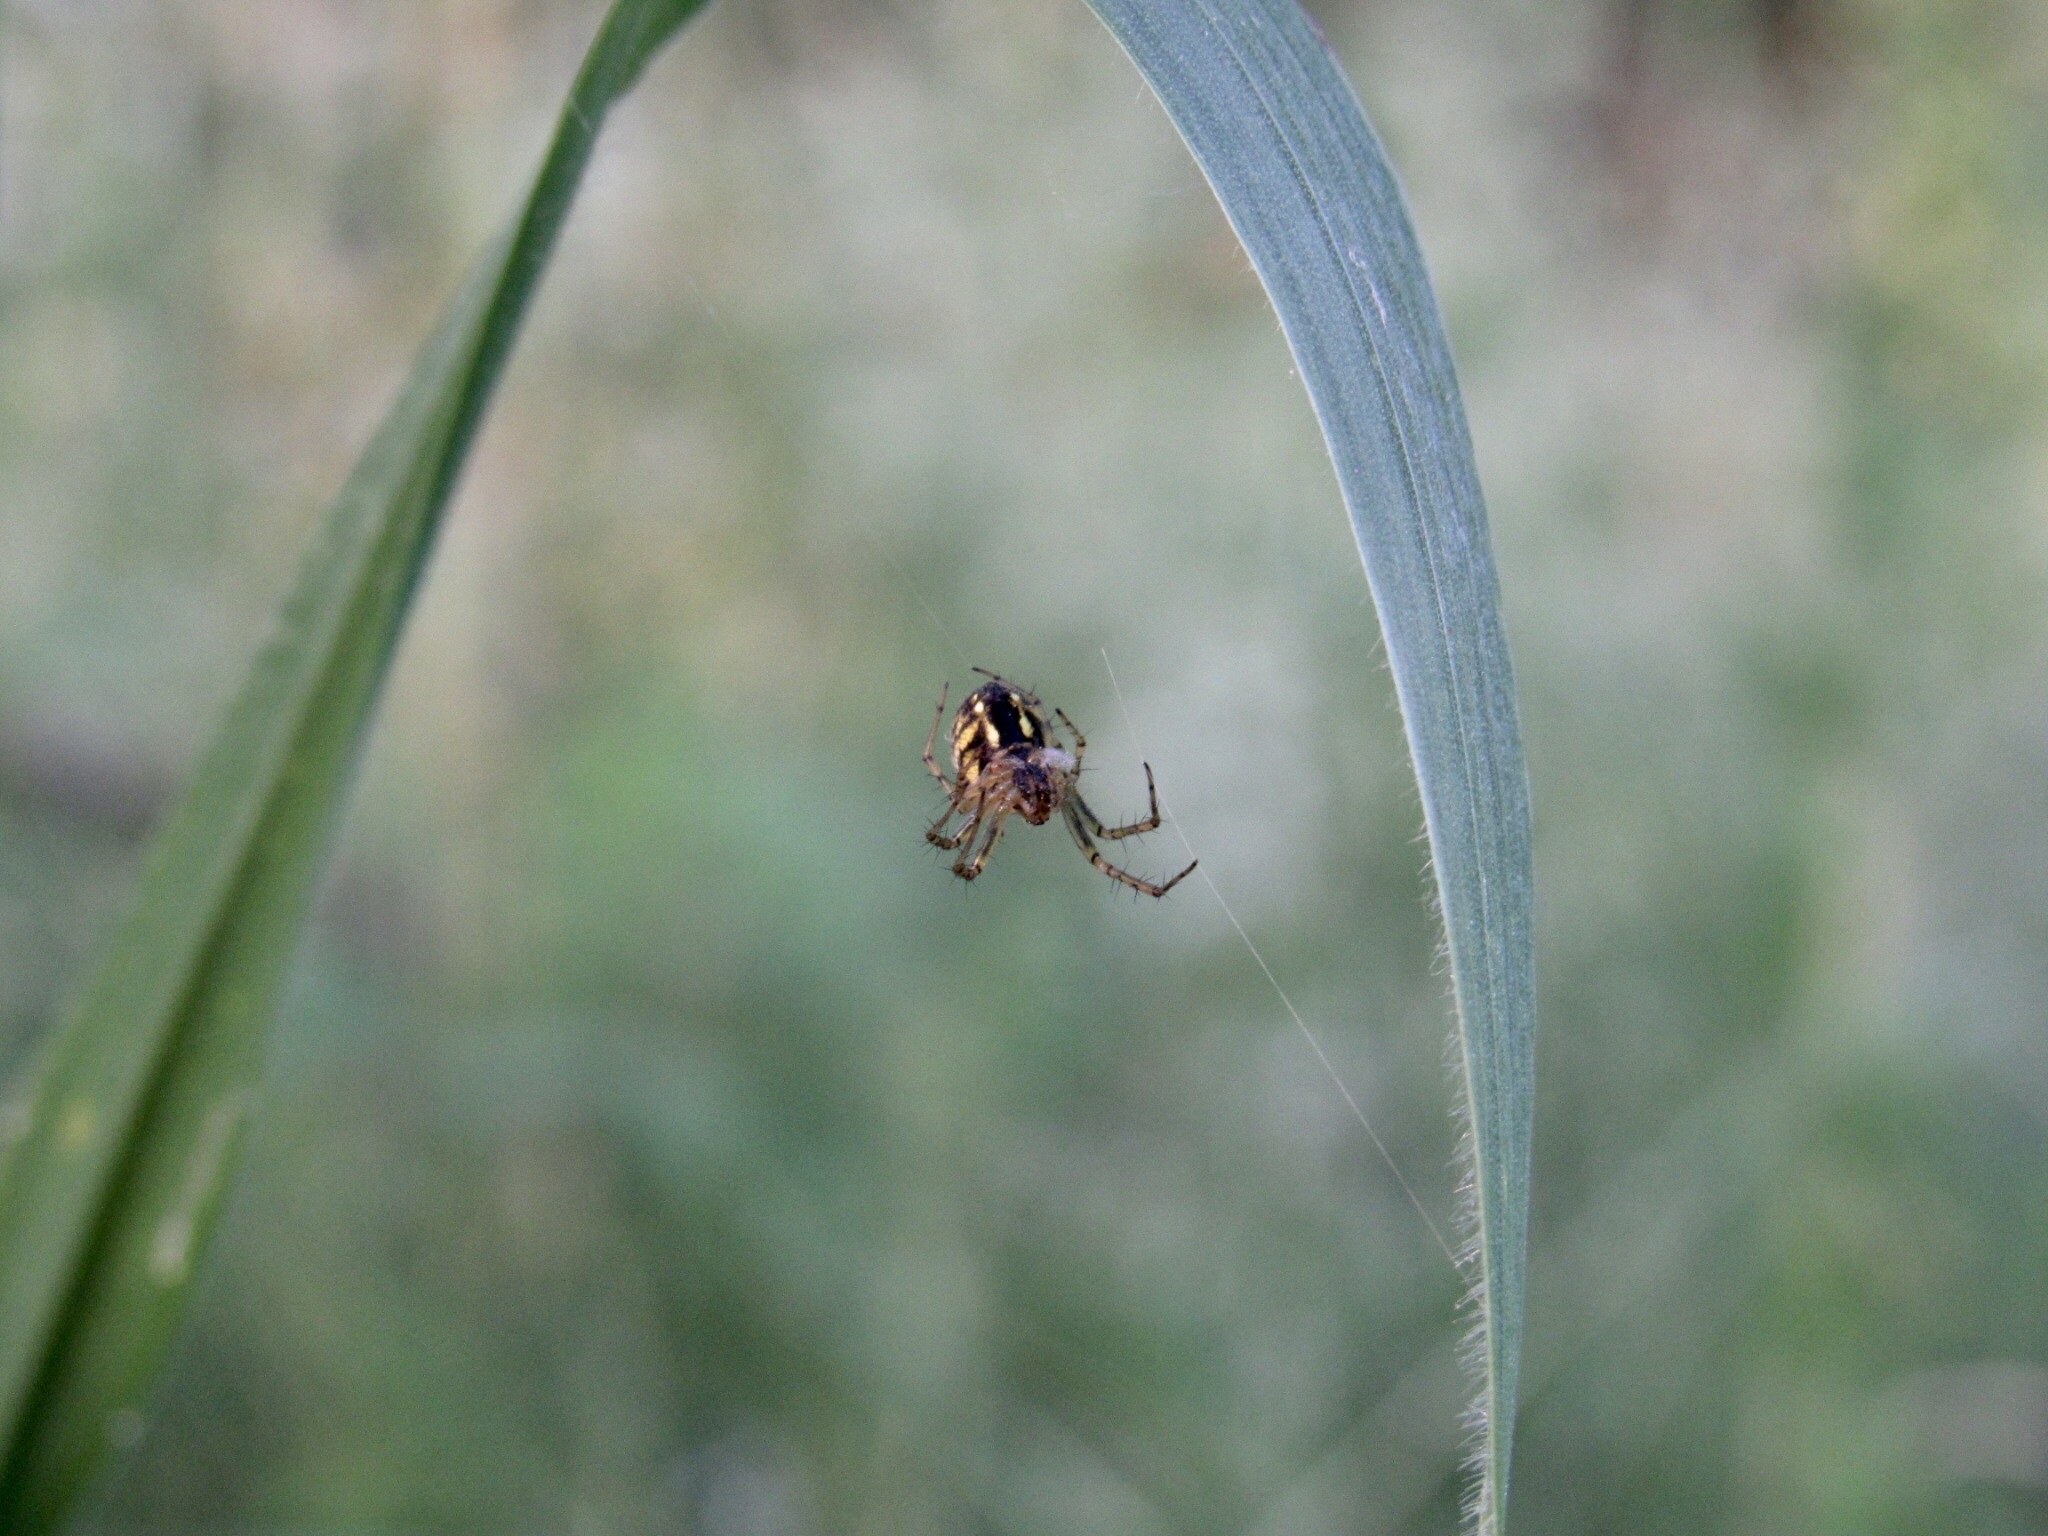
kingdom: Animalia
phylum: Arthropoda
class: Arachnida
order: Araneae
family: Araneidae
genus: Mangora
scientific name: Mangora acalypha
